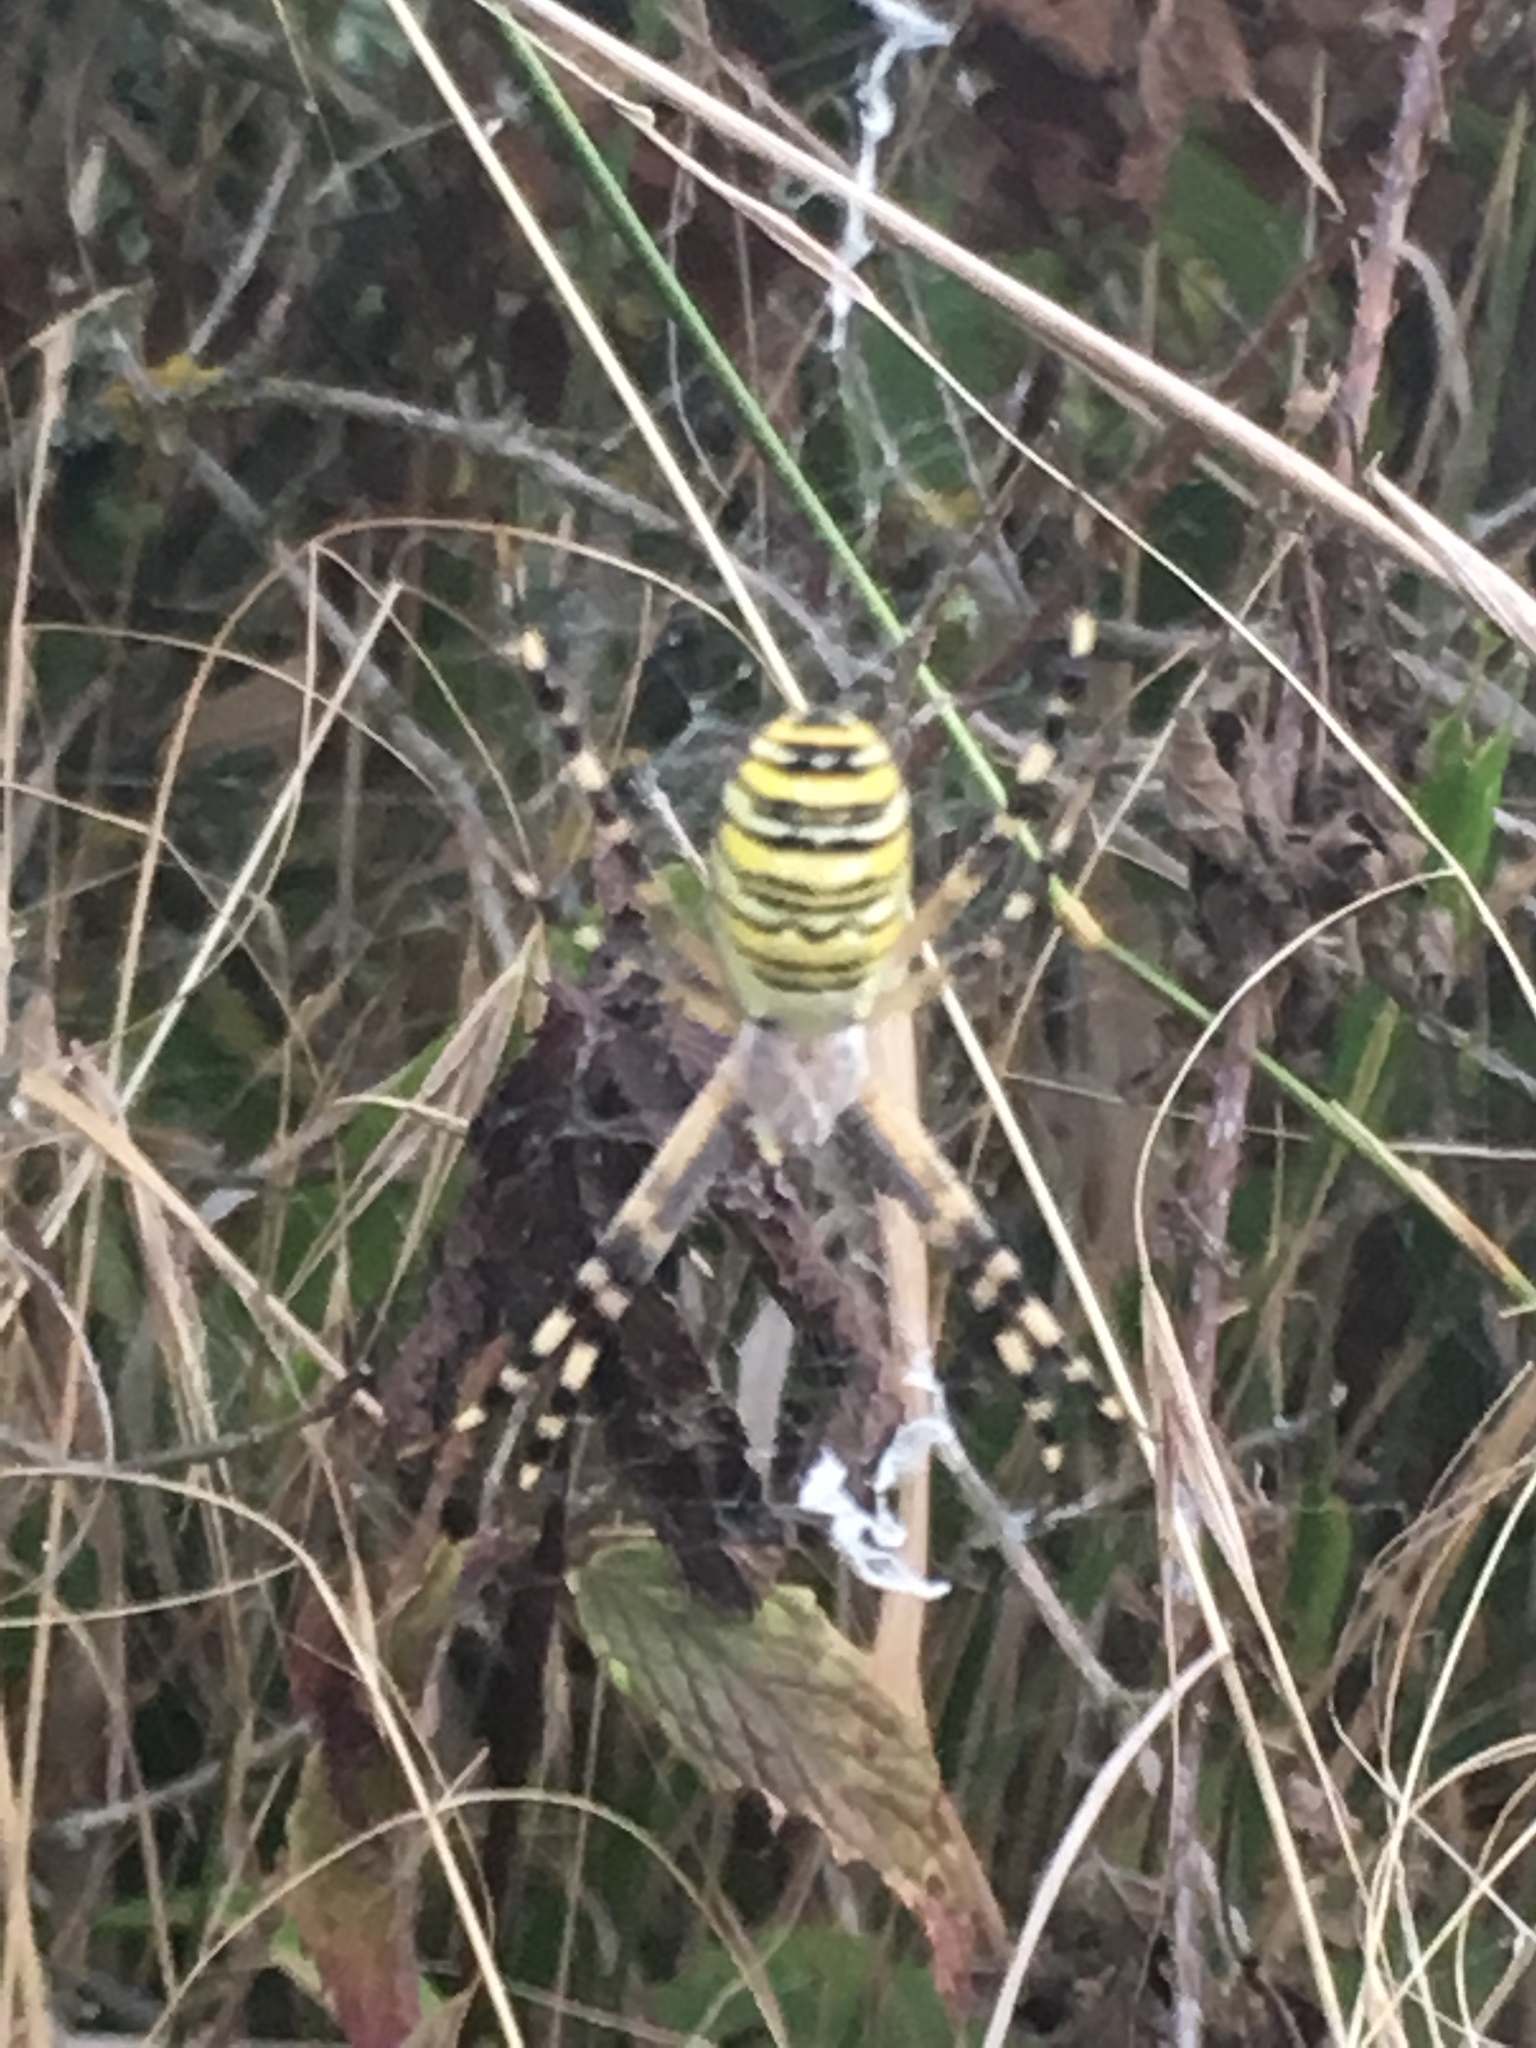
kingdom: Animalia
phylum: Arthropoda
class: Arachnida
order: Araneae
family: Araneidae
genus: Argiope
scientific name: Argiope bruennichi
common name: Wasp spider
